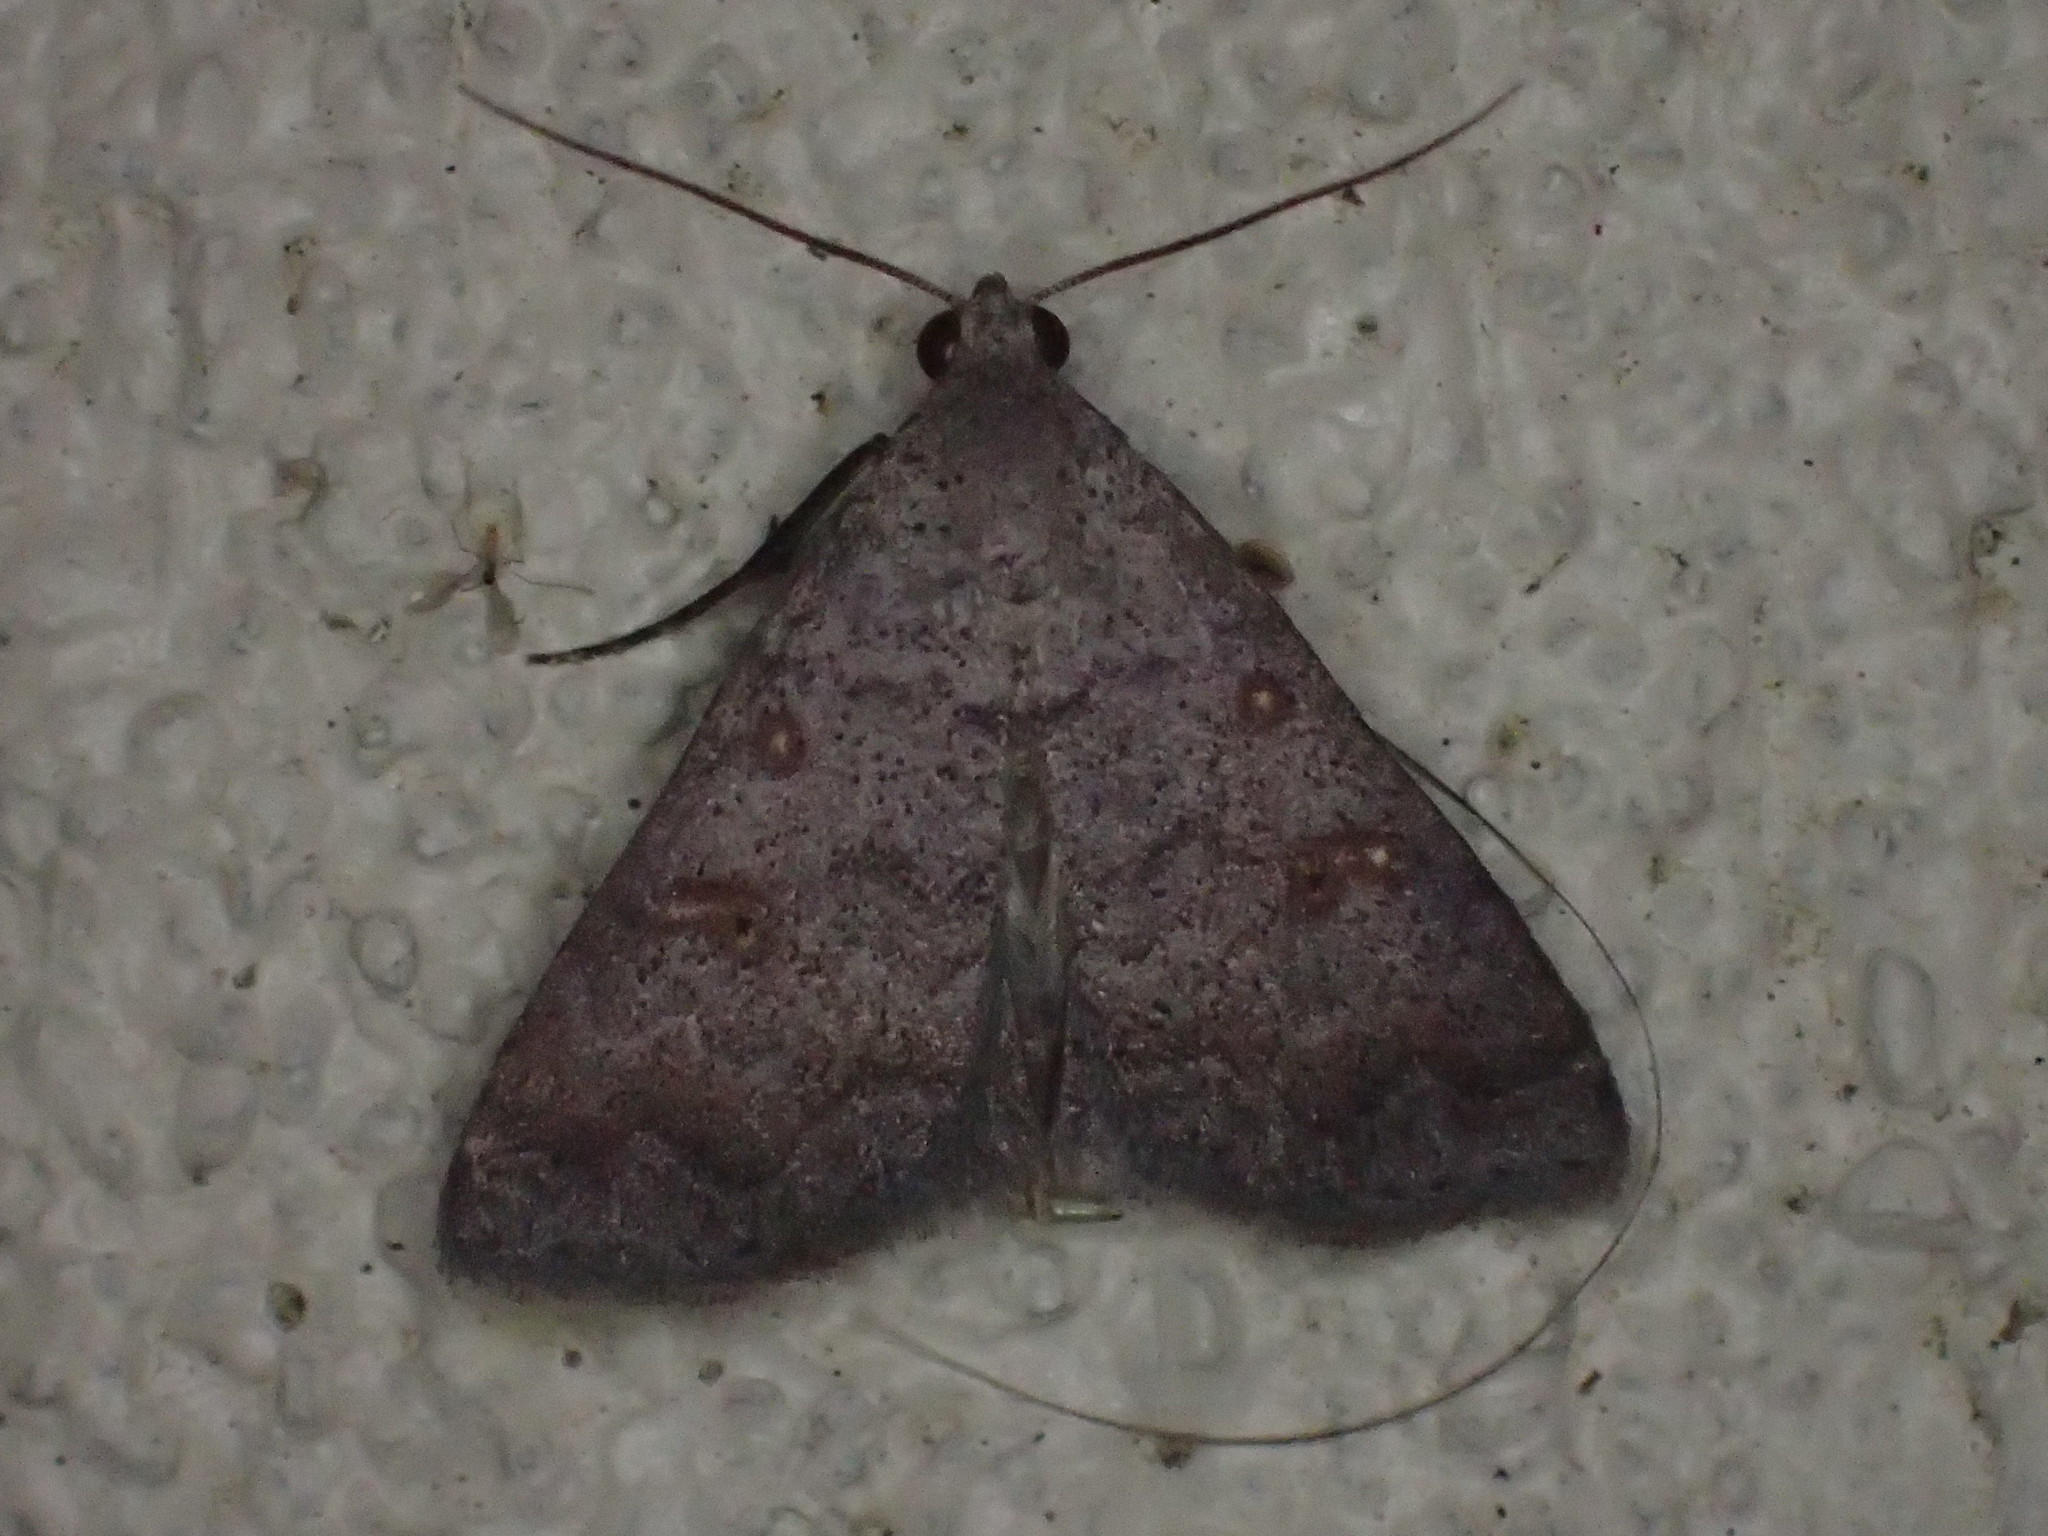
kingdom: Animalia
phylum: Arthropoda
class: Insecta
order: Lepidoptera
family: Erebidae
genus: Bleptina
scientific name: Bleptina sangamonia
